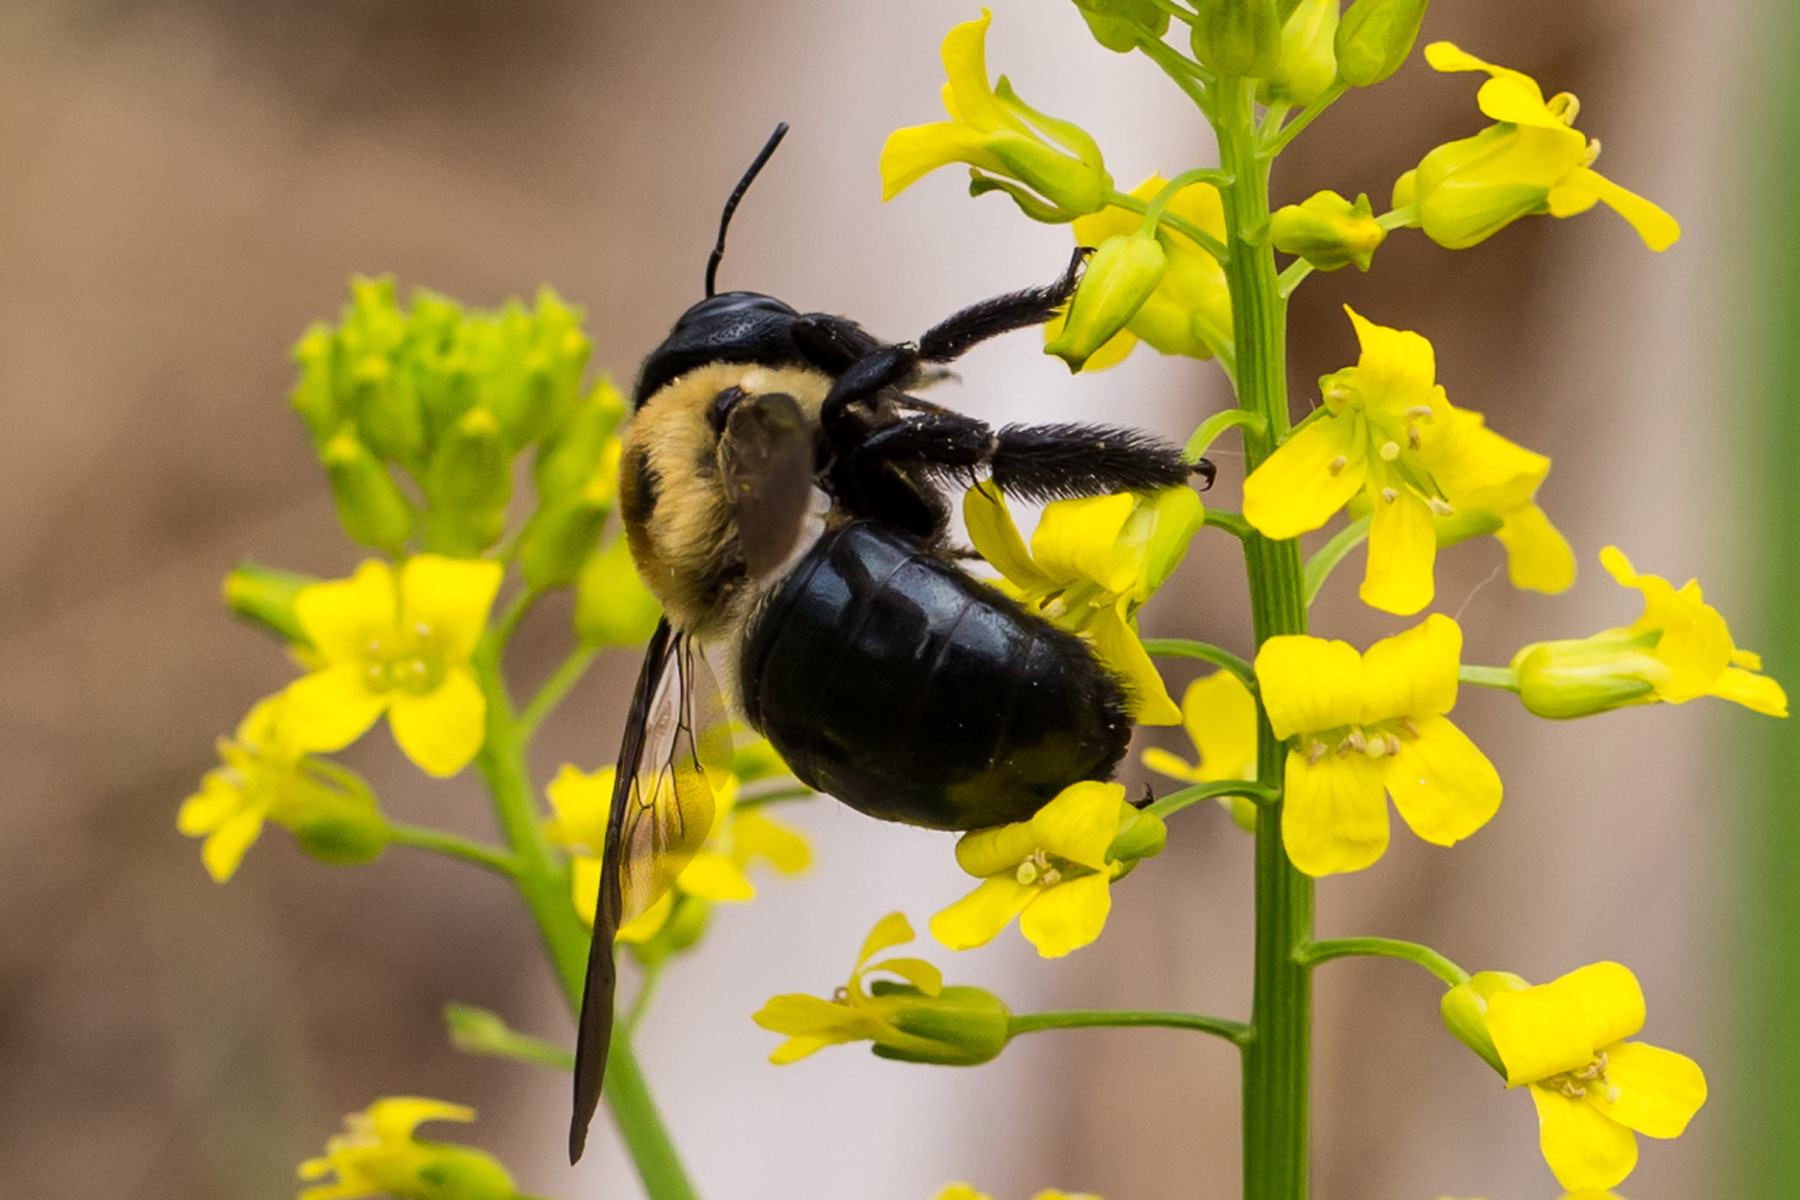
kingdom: Animalia
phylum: Arthropoda
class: Insecta
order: Hymenoptera
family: Apidae
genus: Xylocopa
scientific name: Xylocopa virginica
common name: Carpenter bee
